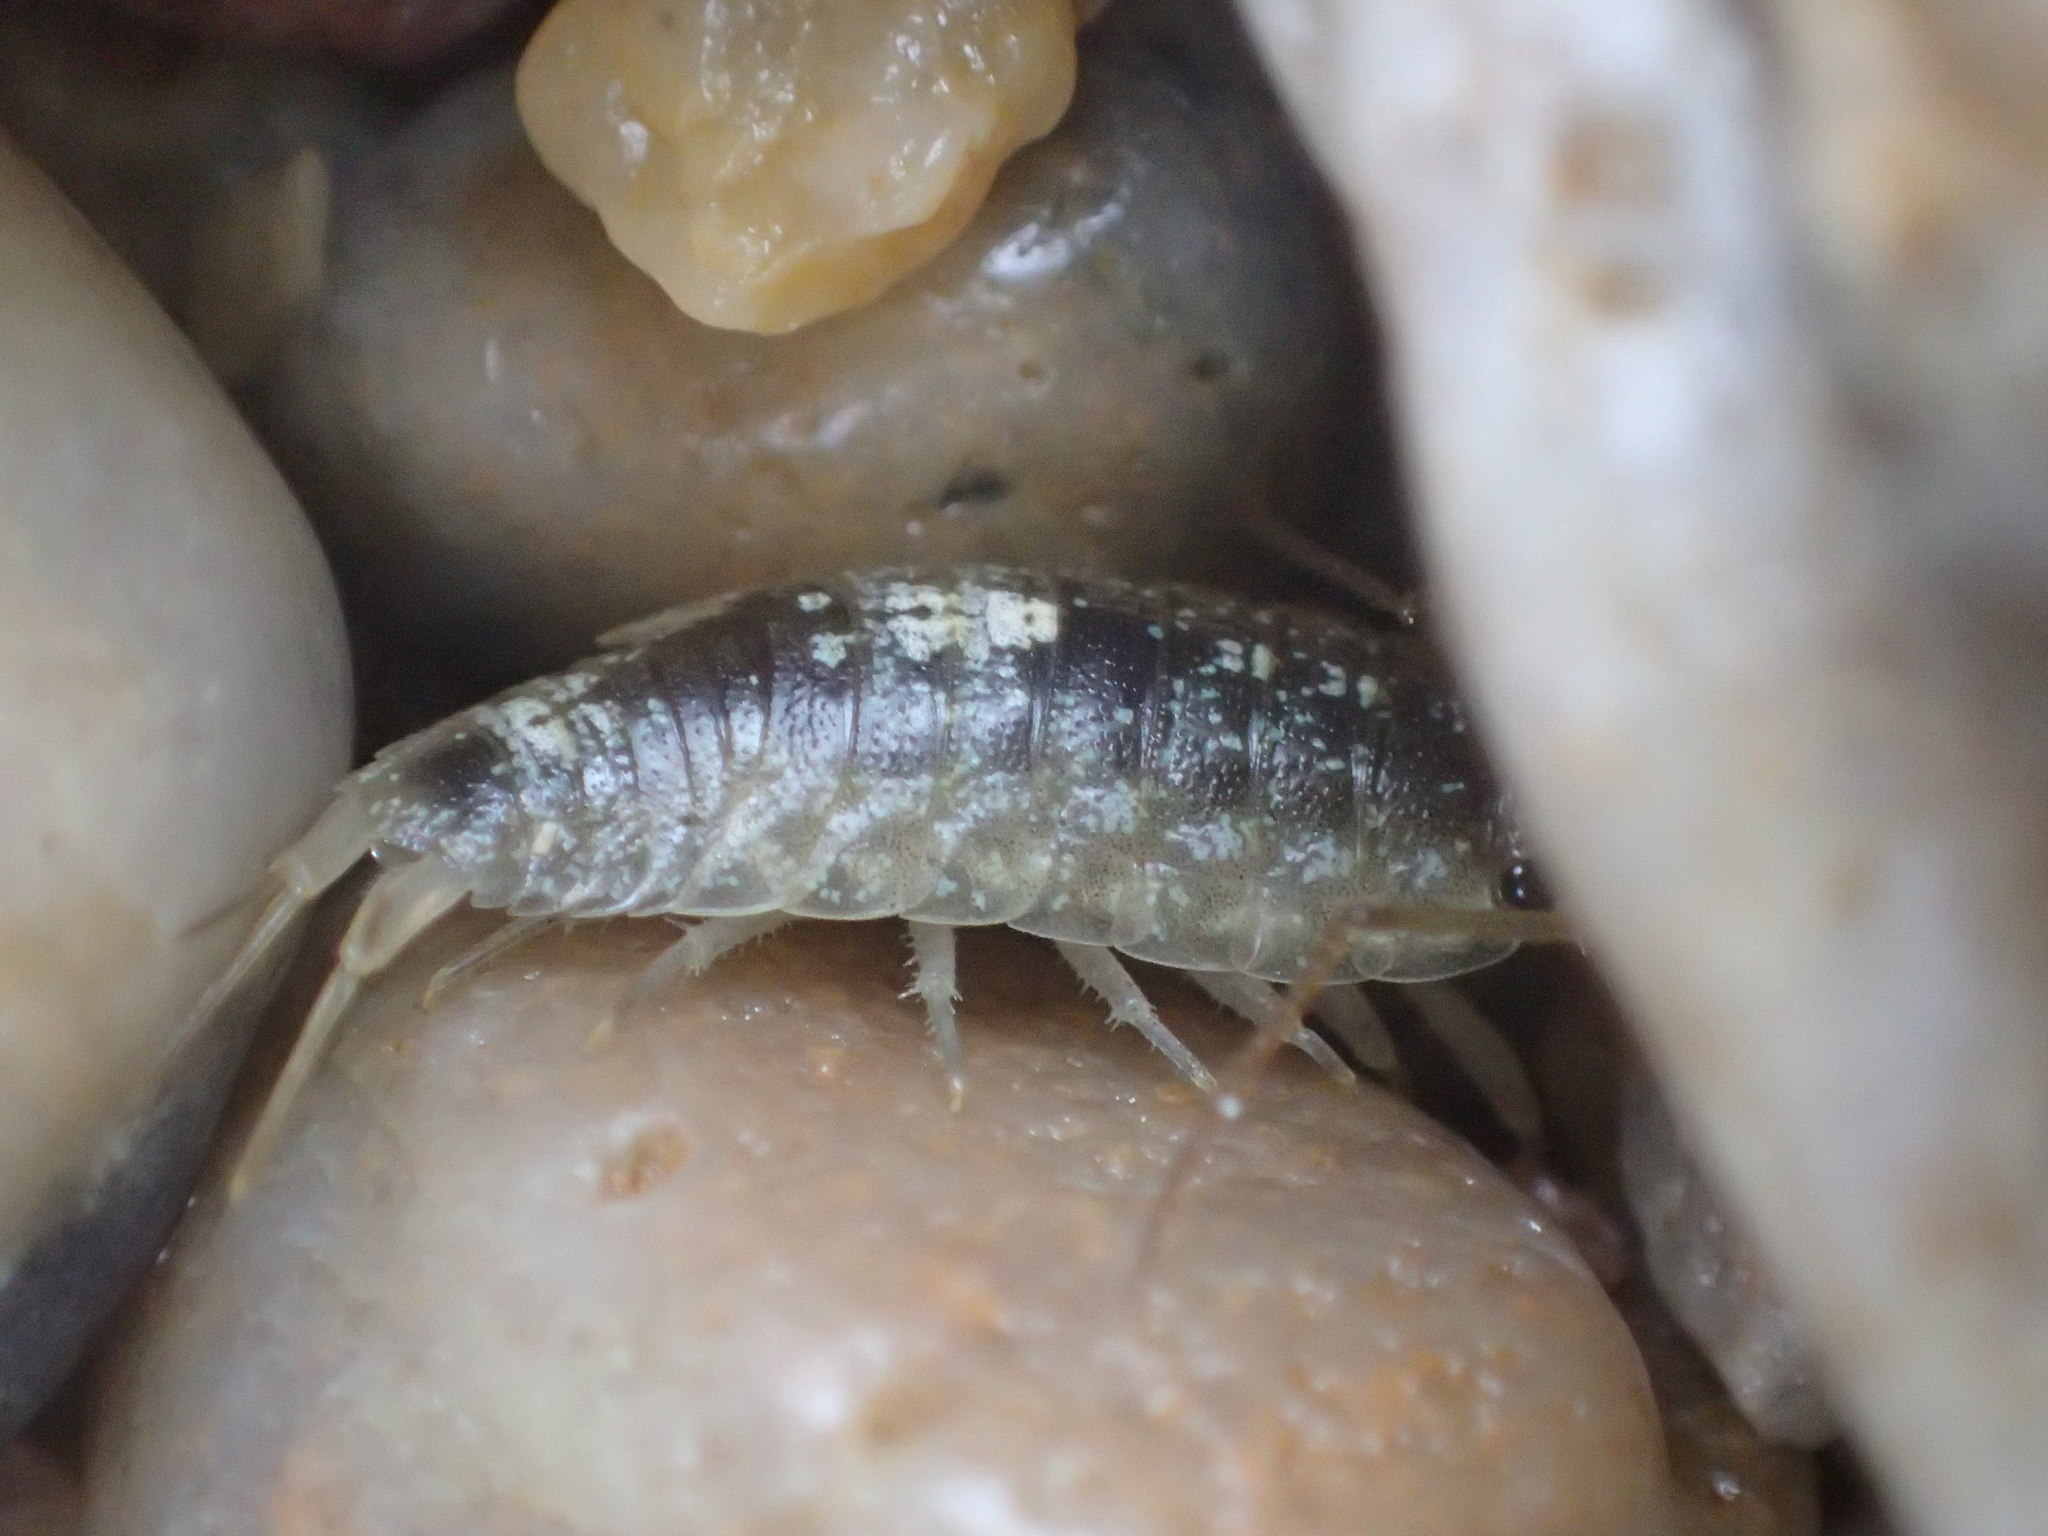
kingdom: Animalia
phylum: Arthropoda
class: Malacostraca
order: Isopoda
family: Ligiidae
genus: Ligia
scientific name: Ligia australiensis
